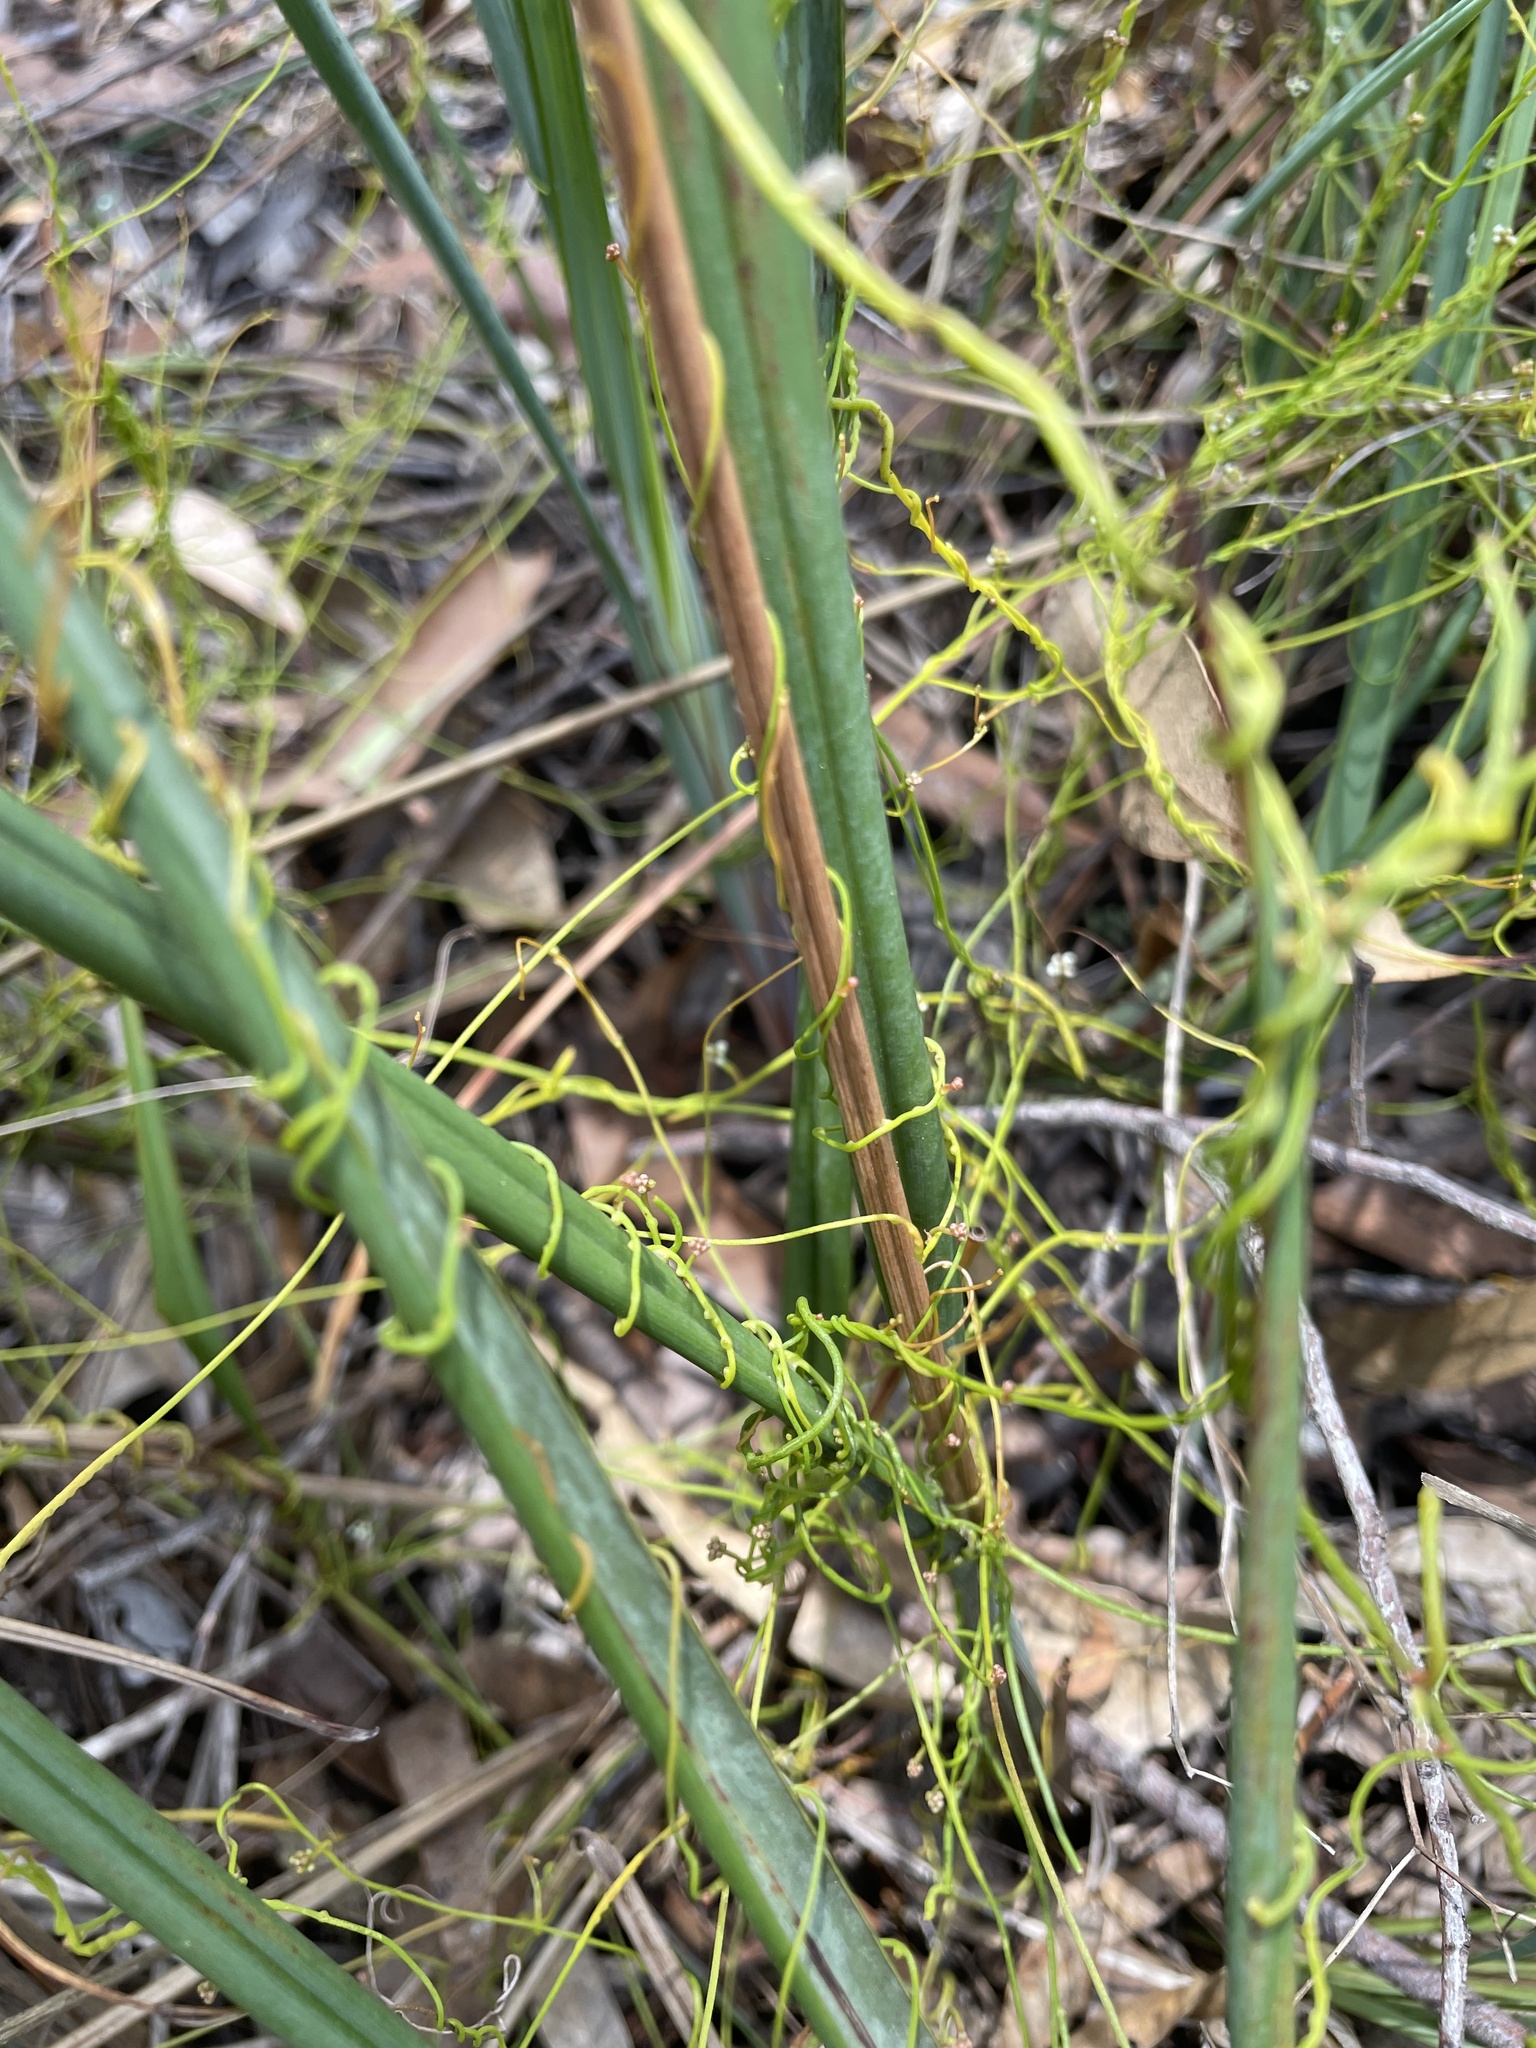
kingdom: Plantae
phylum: Tracheophyta
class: Magnoliopsida
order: Laurales
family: Lauraceae
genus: Cassytha
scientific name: Cassytha glabella
